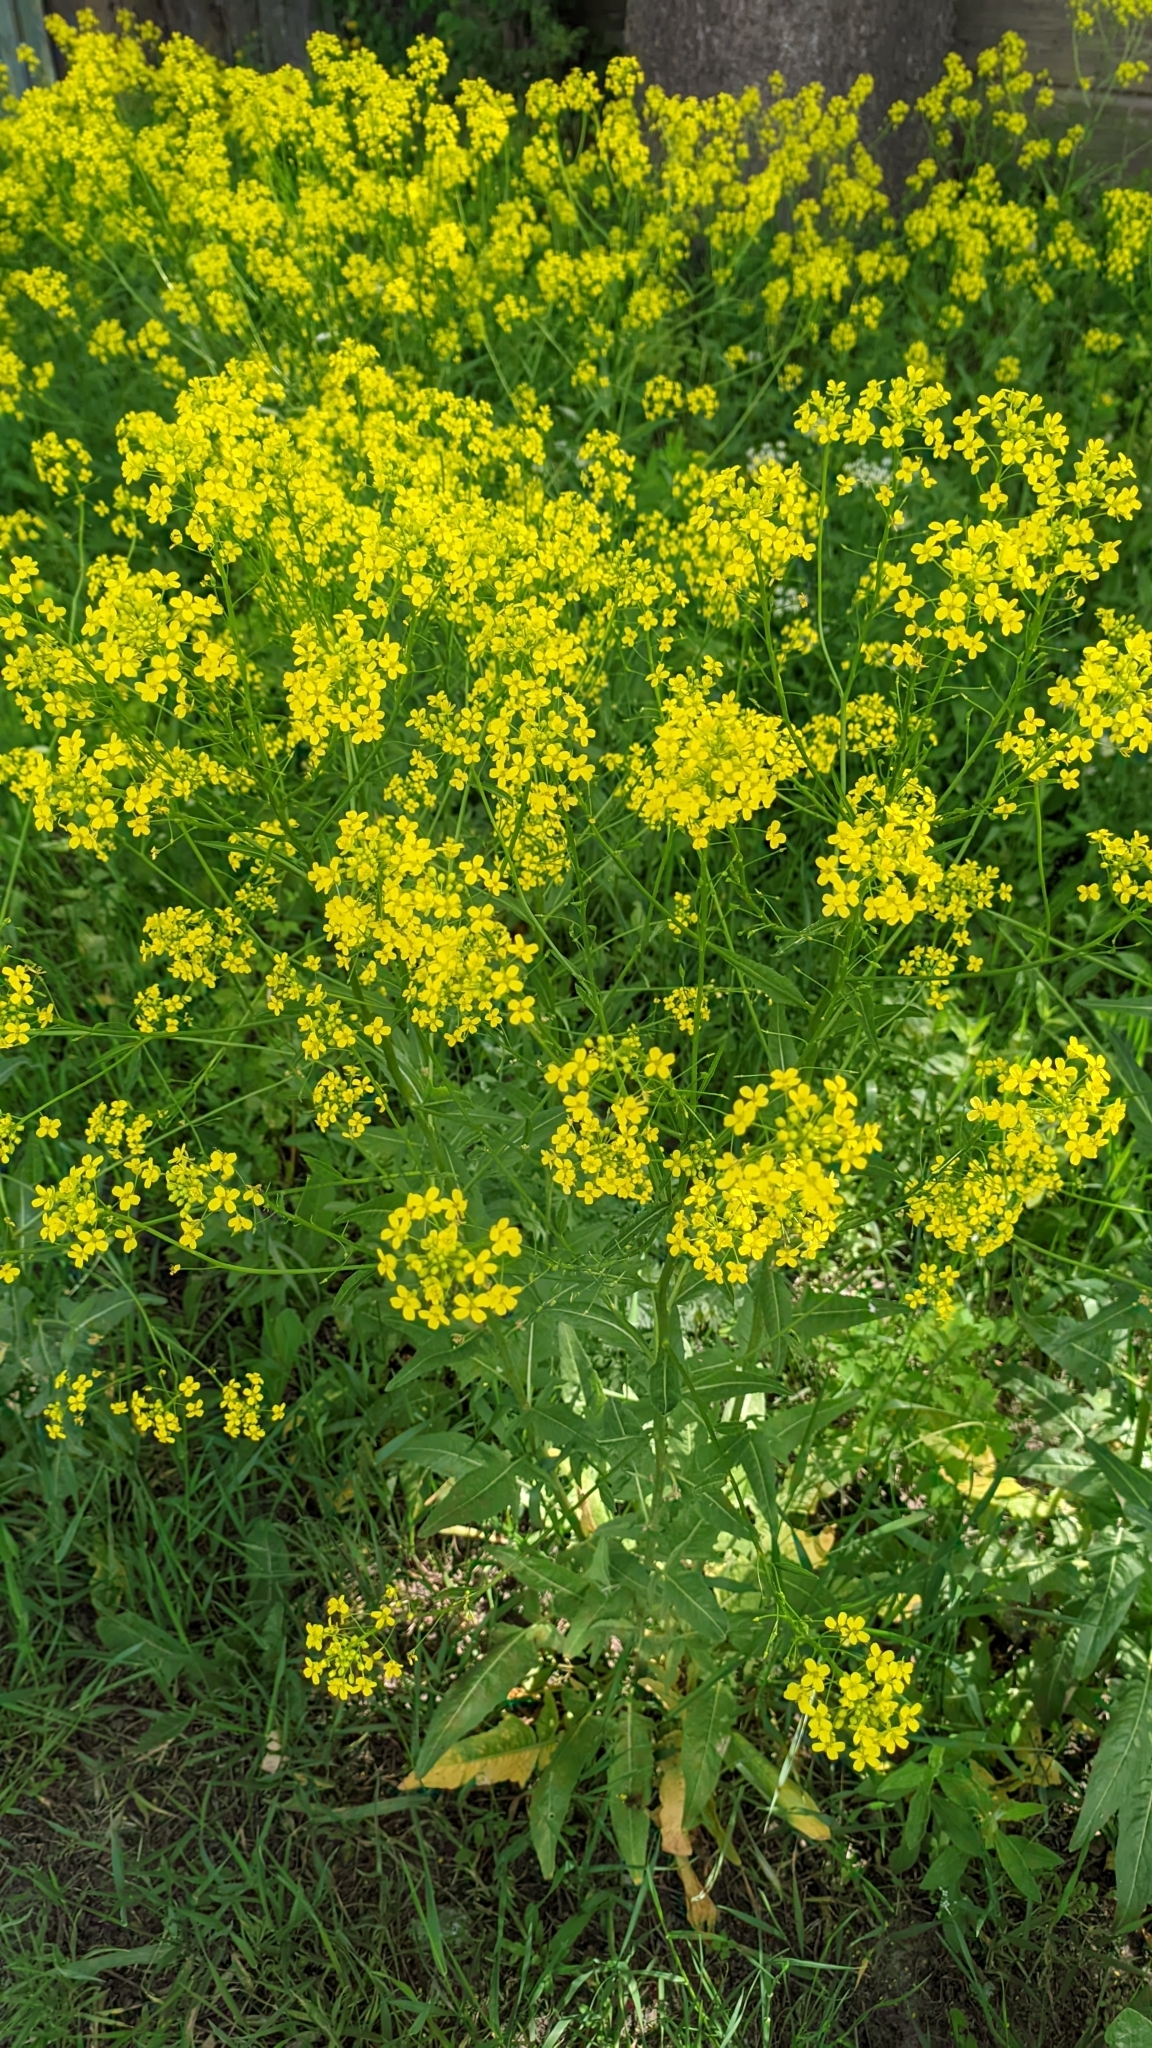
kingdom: Plantae
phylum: Tracheophyta
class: Magnoliopsida
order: Brassicales
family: Brassicaceae
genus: Bunias
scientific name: Bunias orientalis
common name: Warty-cabbage
